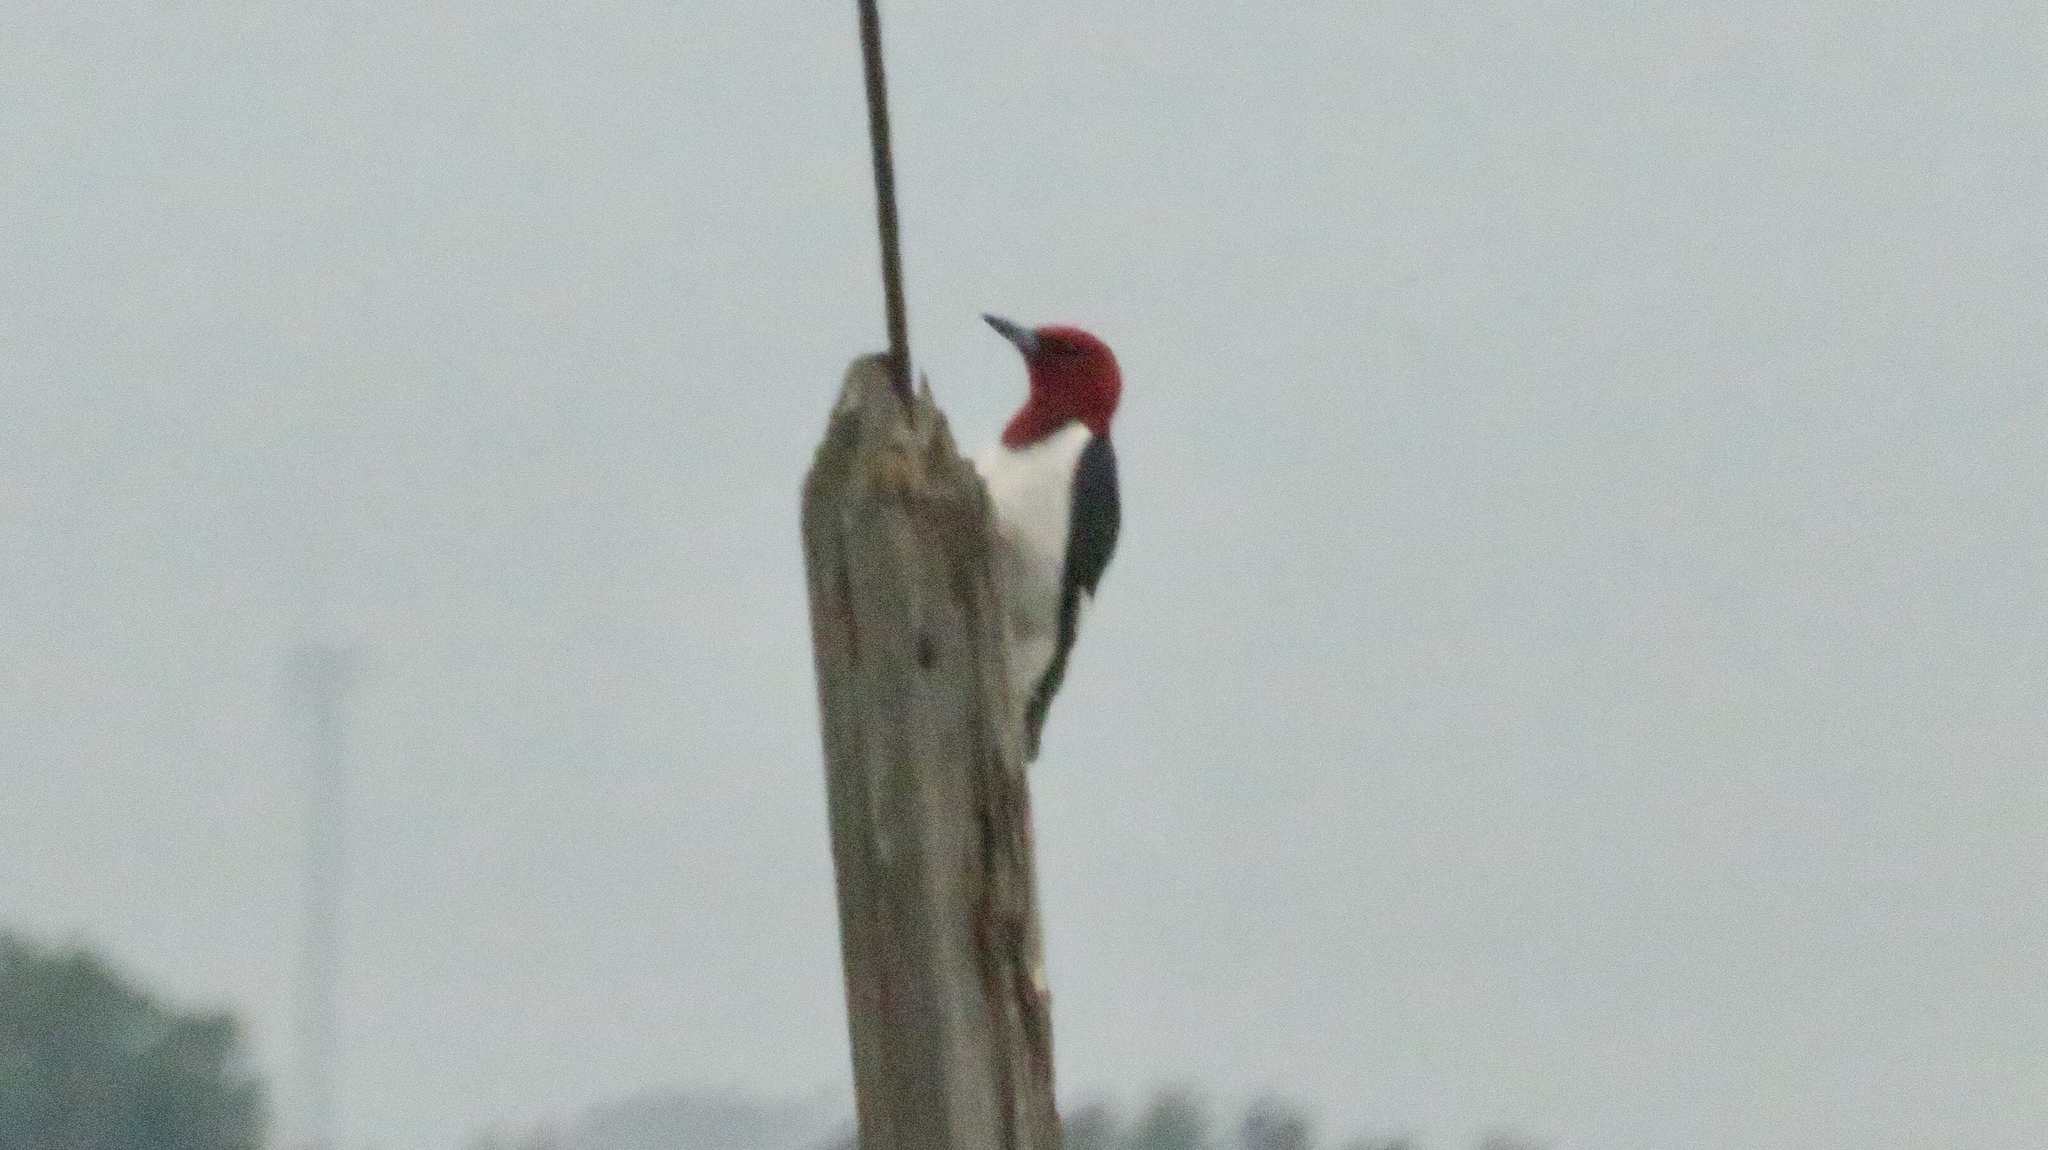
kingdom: Animalia
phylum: Chordata
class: Aves
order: Piciformes
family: Picidae
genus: Melanerpes
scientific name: Melanerpes erythrocephalus
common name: Red-headed woodpecker
